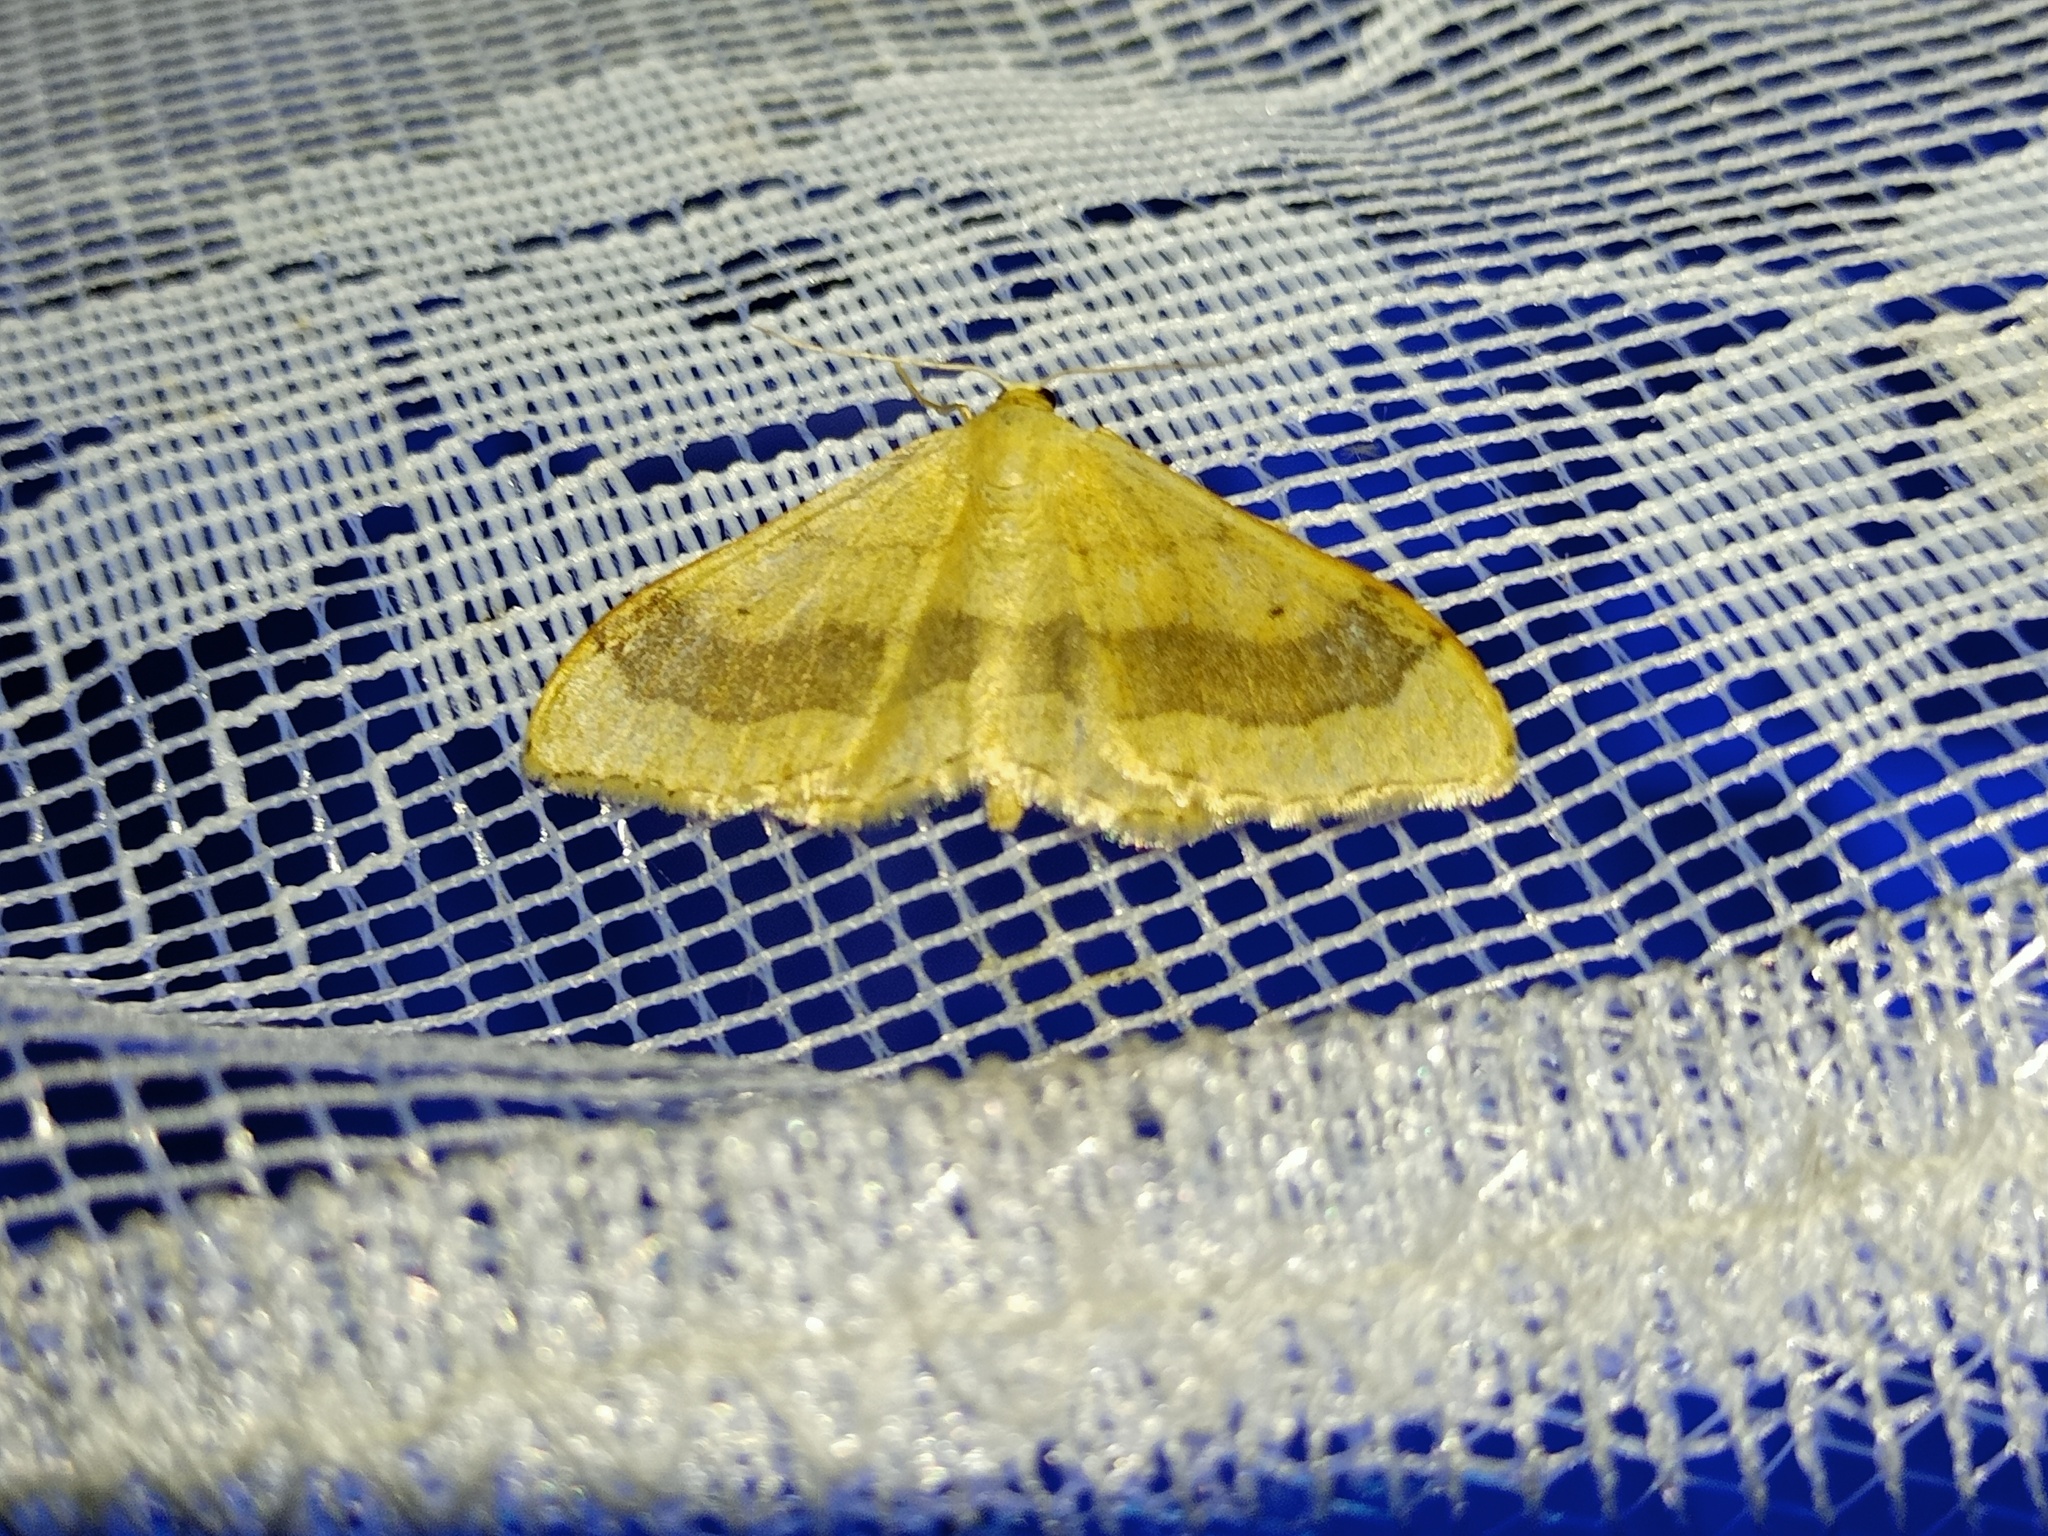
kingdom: Animalia
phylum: Arthropoda
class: Insecta
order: Lepidoptera
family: Geometridae
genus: Idaea
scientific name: Idaea aversata
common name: Riband wave
